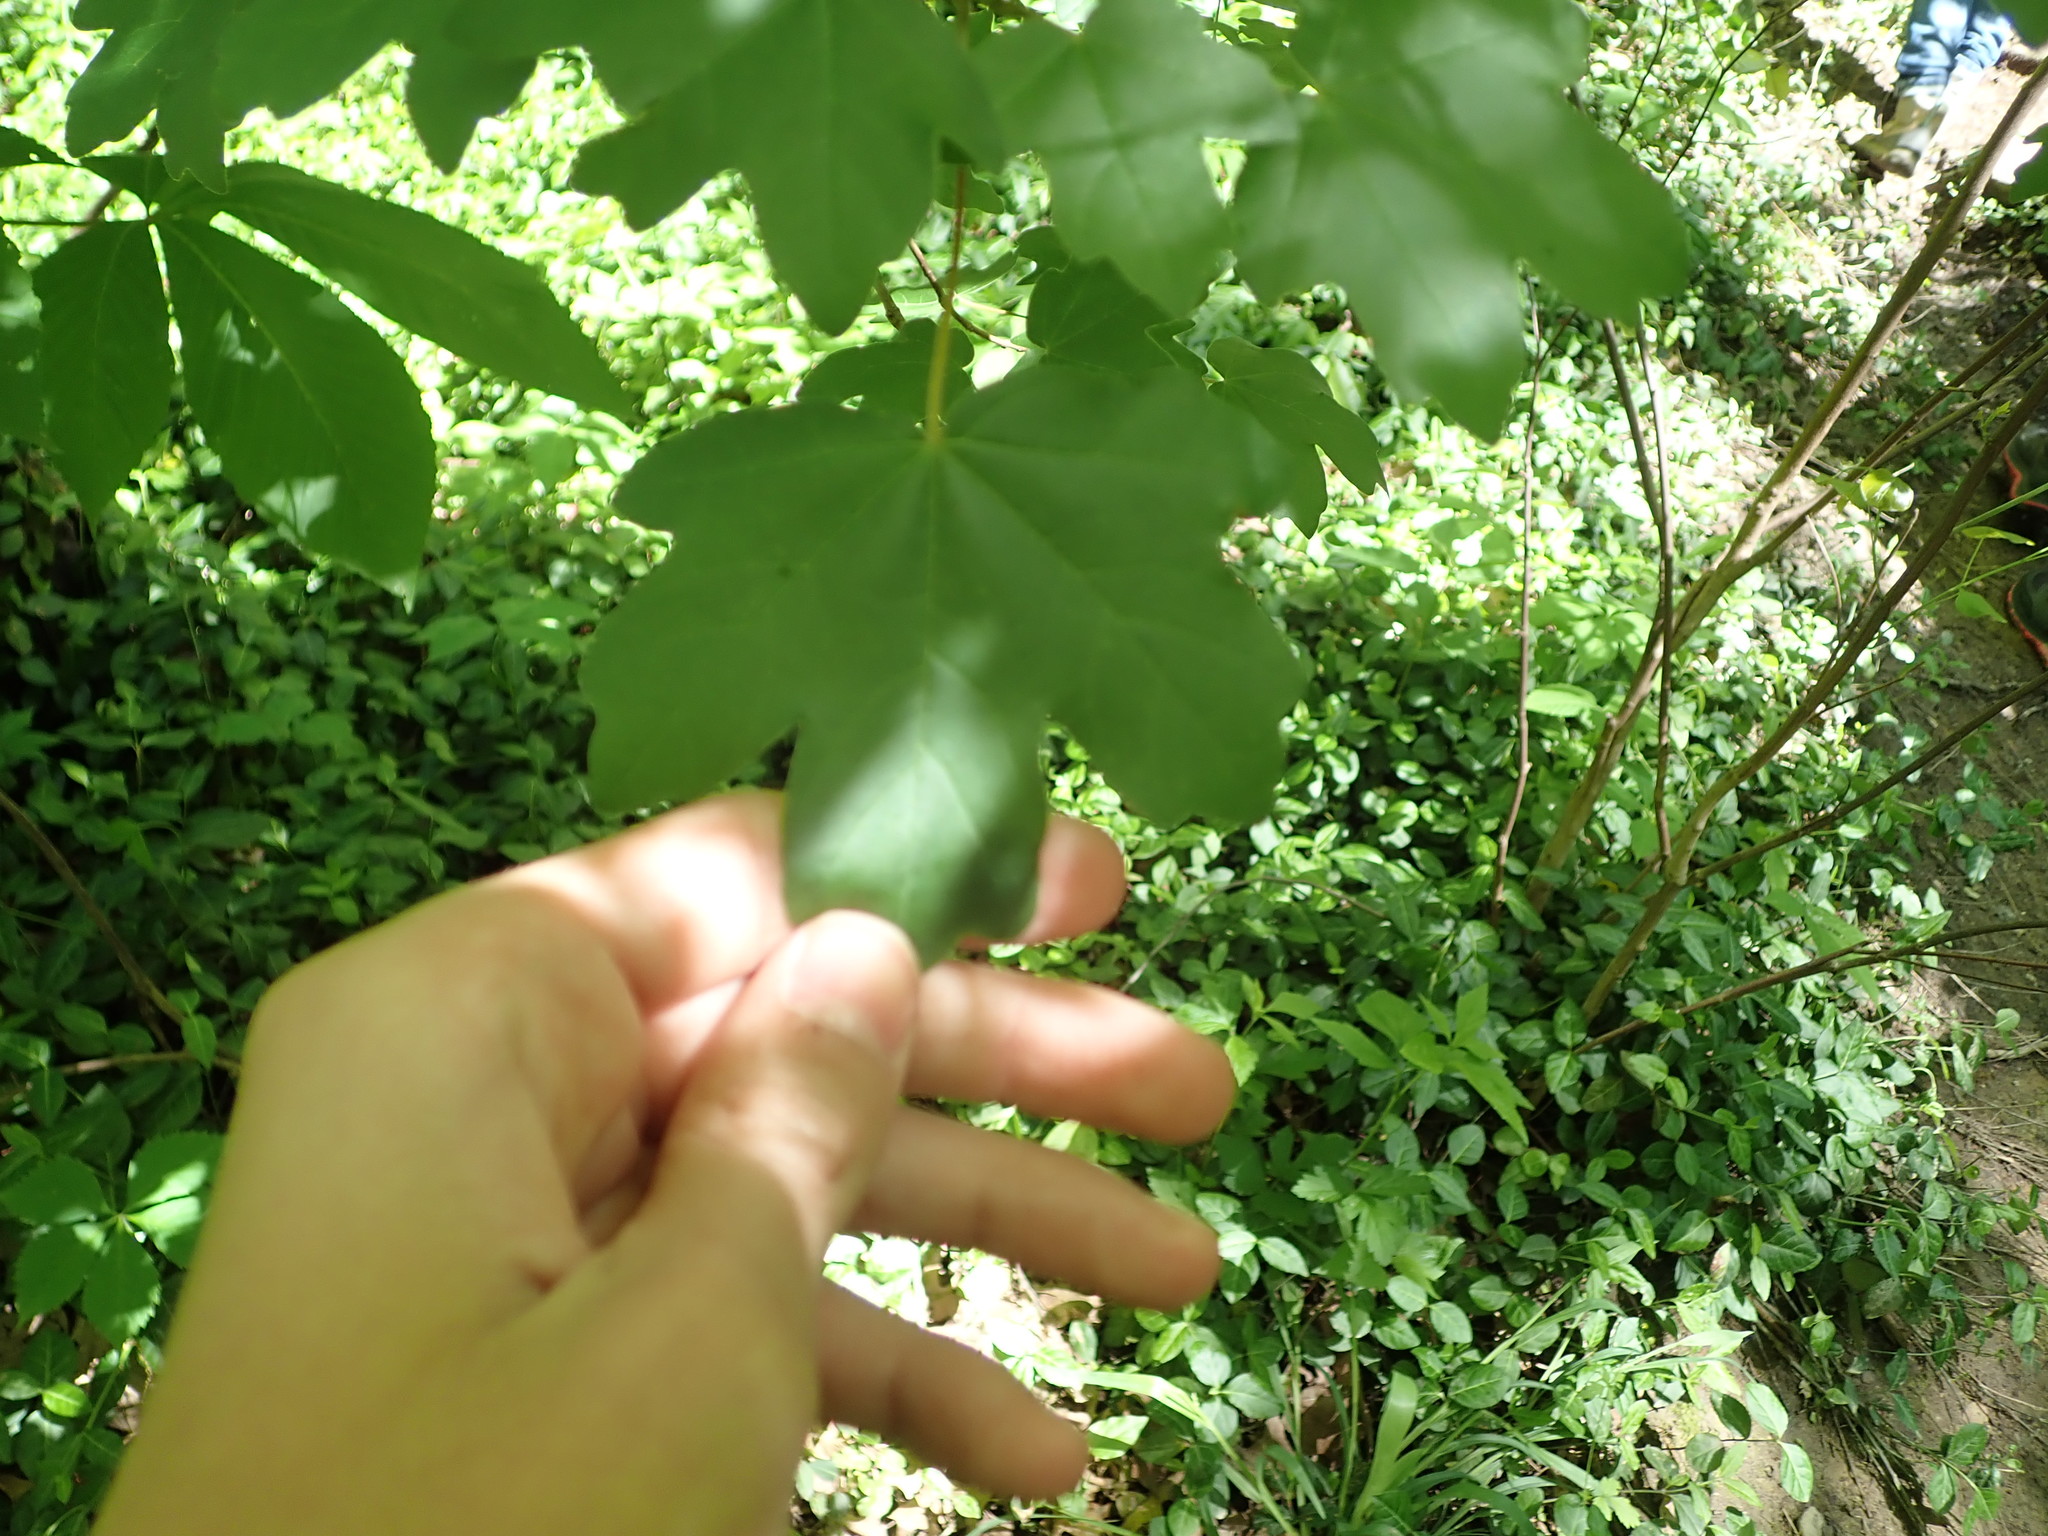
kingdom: Plantae
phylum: Tracheophyta
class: Magnoliopsida
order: Sapindales
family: Sapindaceae
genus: Acer
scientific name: Acer campestre
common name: Field maple
